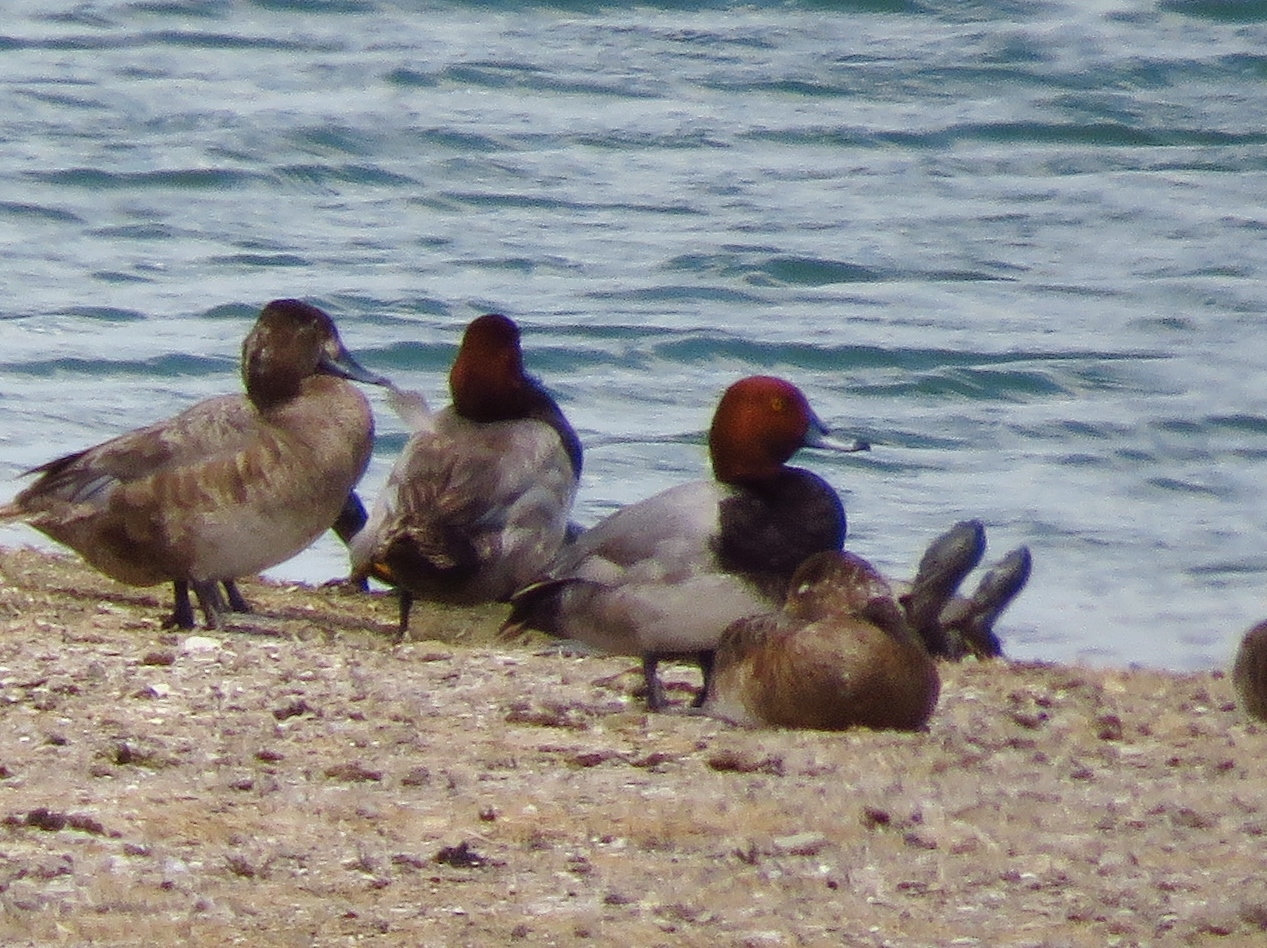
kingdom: Animalia
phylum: Chordata
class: Aves
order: Anseriformes
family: Anatidae
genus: Aythya
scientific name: Aythya americana
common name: Redhead
